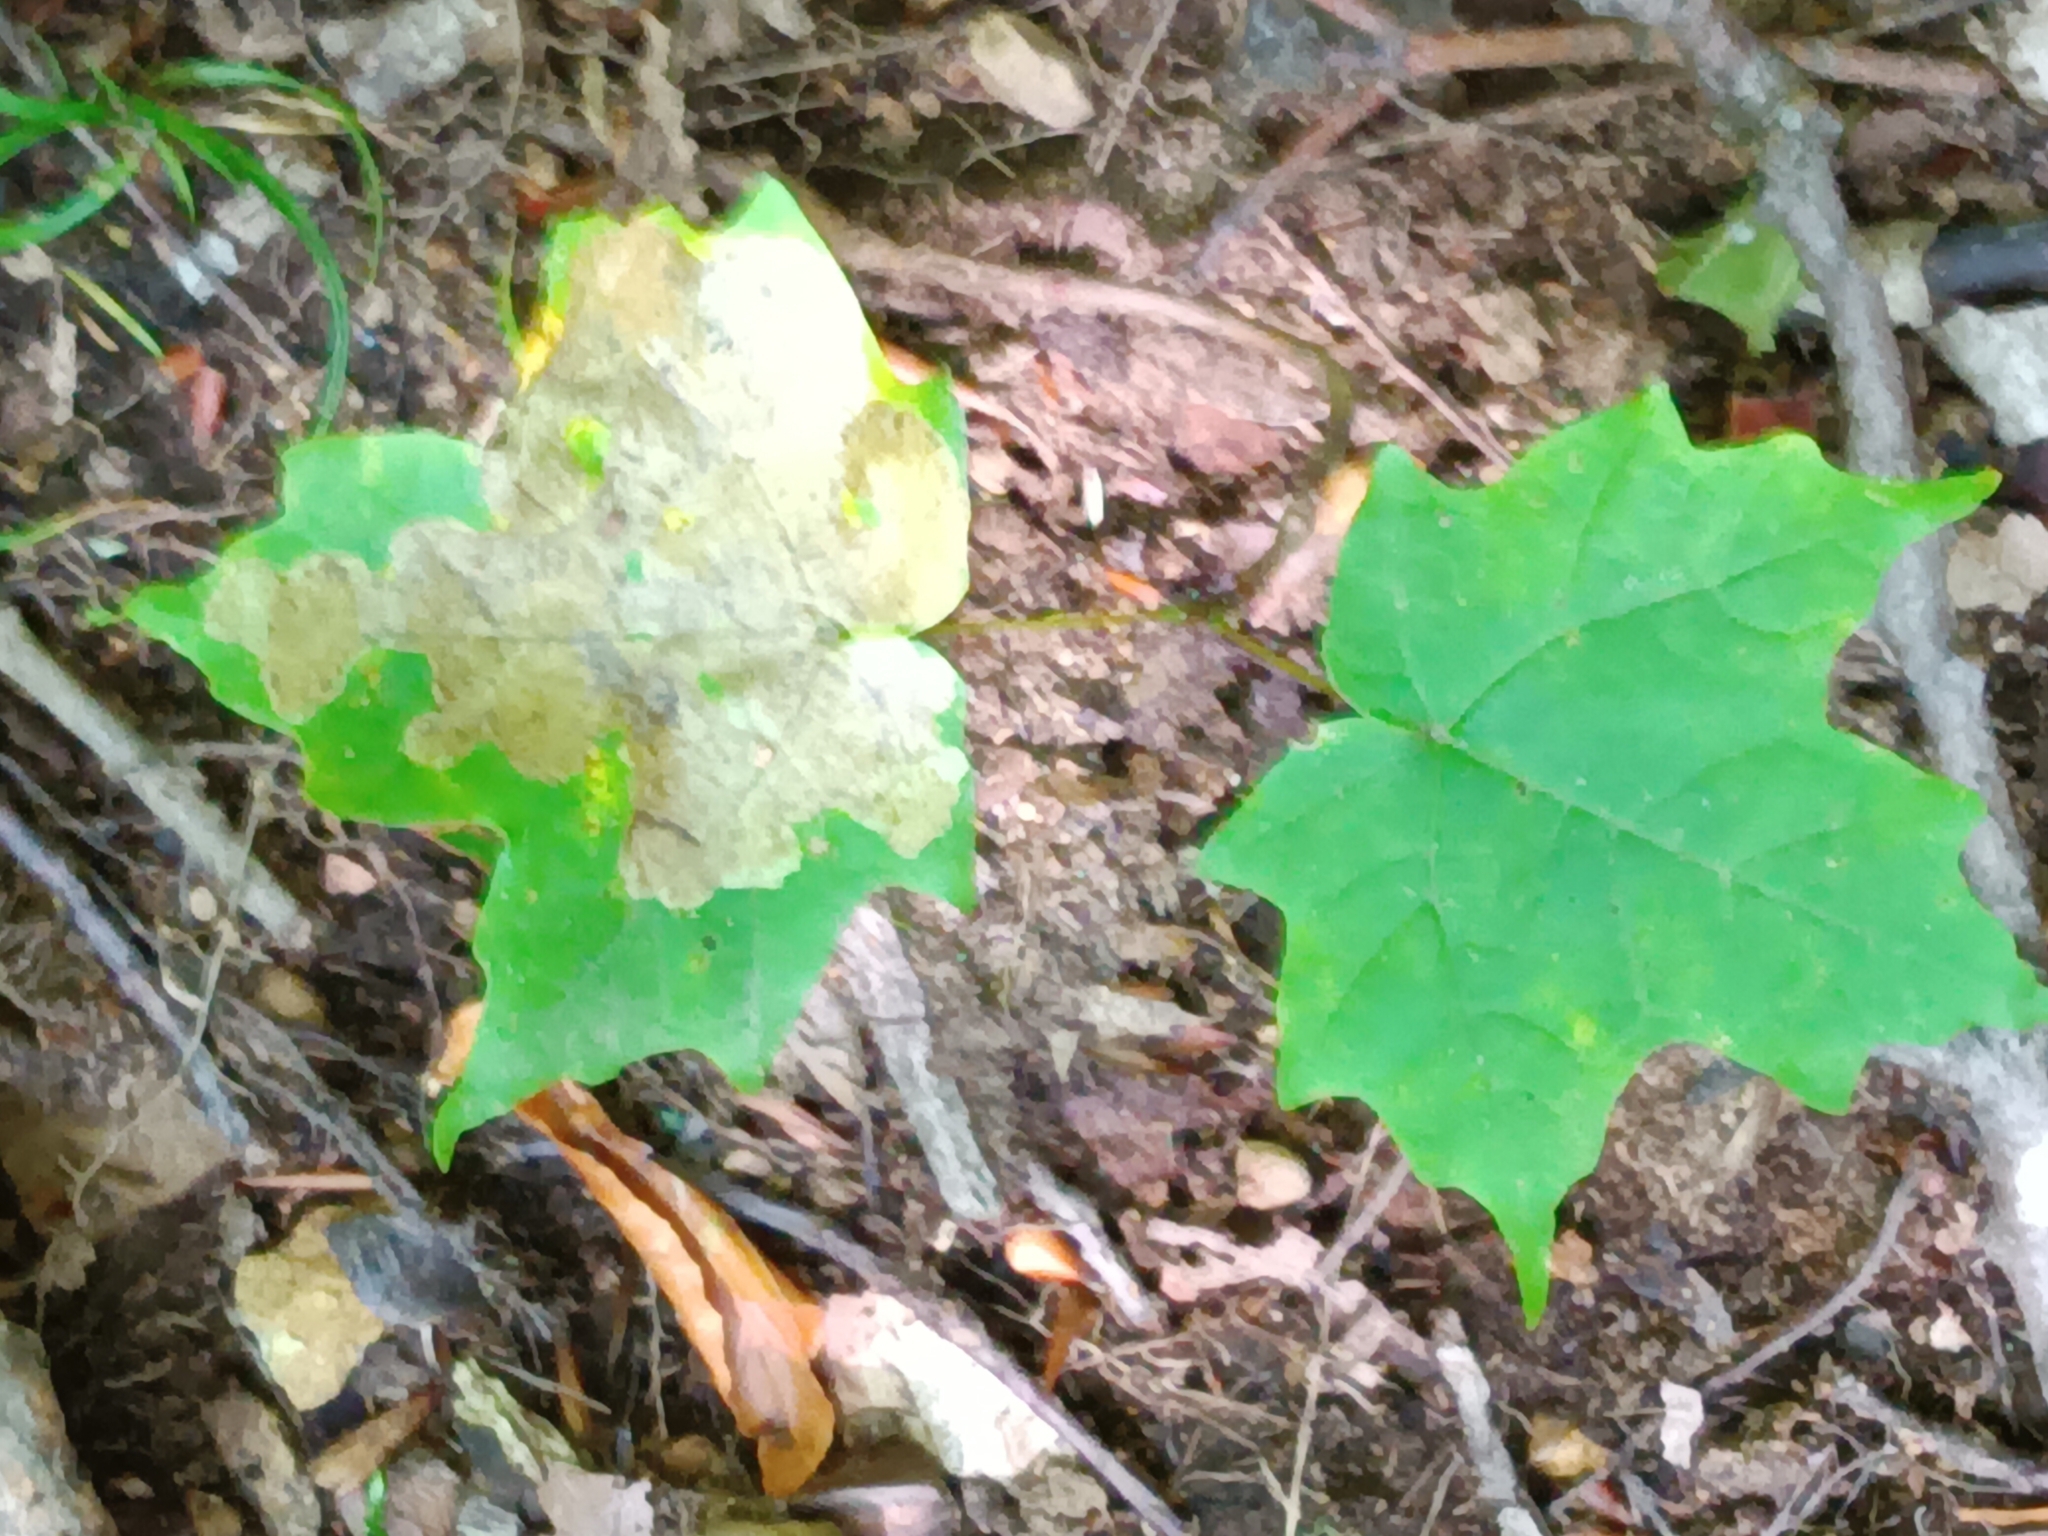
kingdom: Plantae
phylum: Tracheophyta
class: Magnoliopsida
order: Sapindales
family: Sapindaceae
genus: Acer
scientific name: Acer saccharum
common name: Sugar maple
